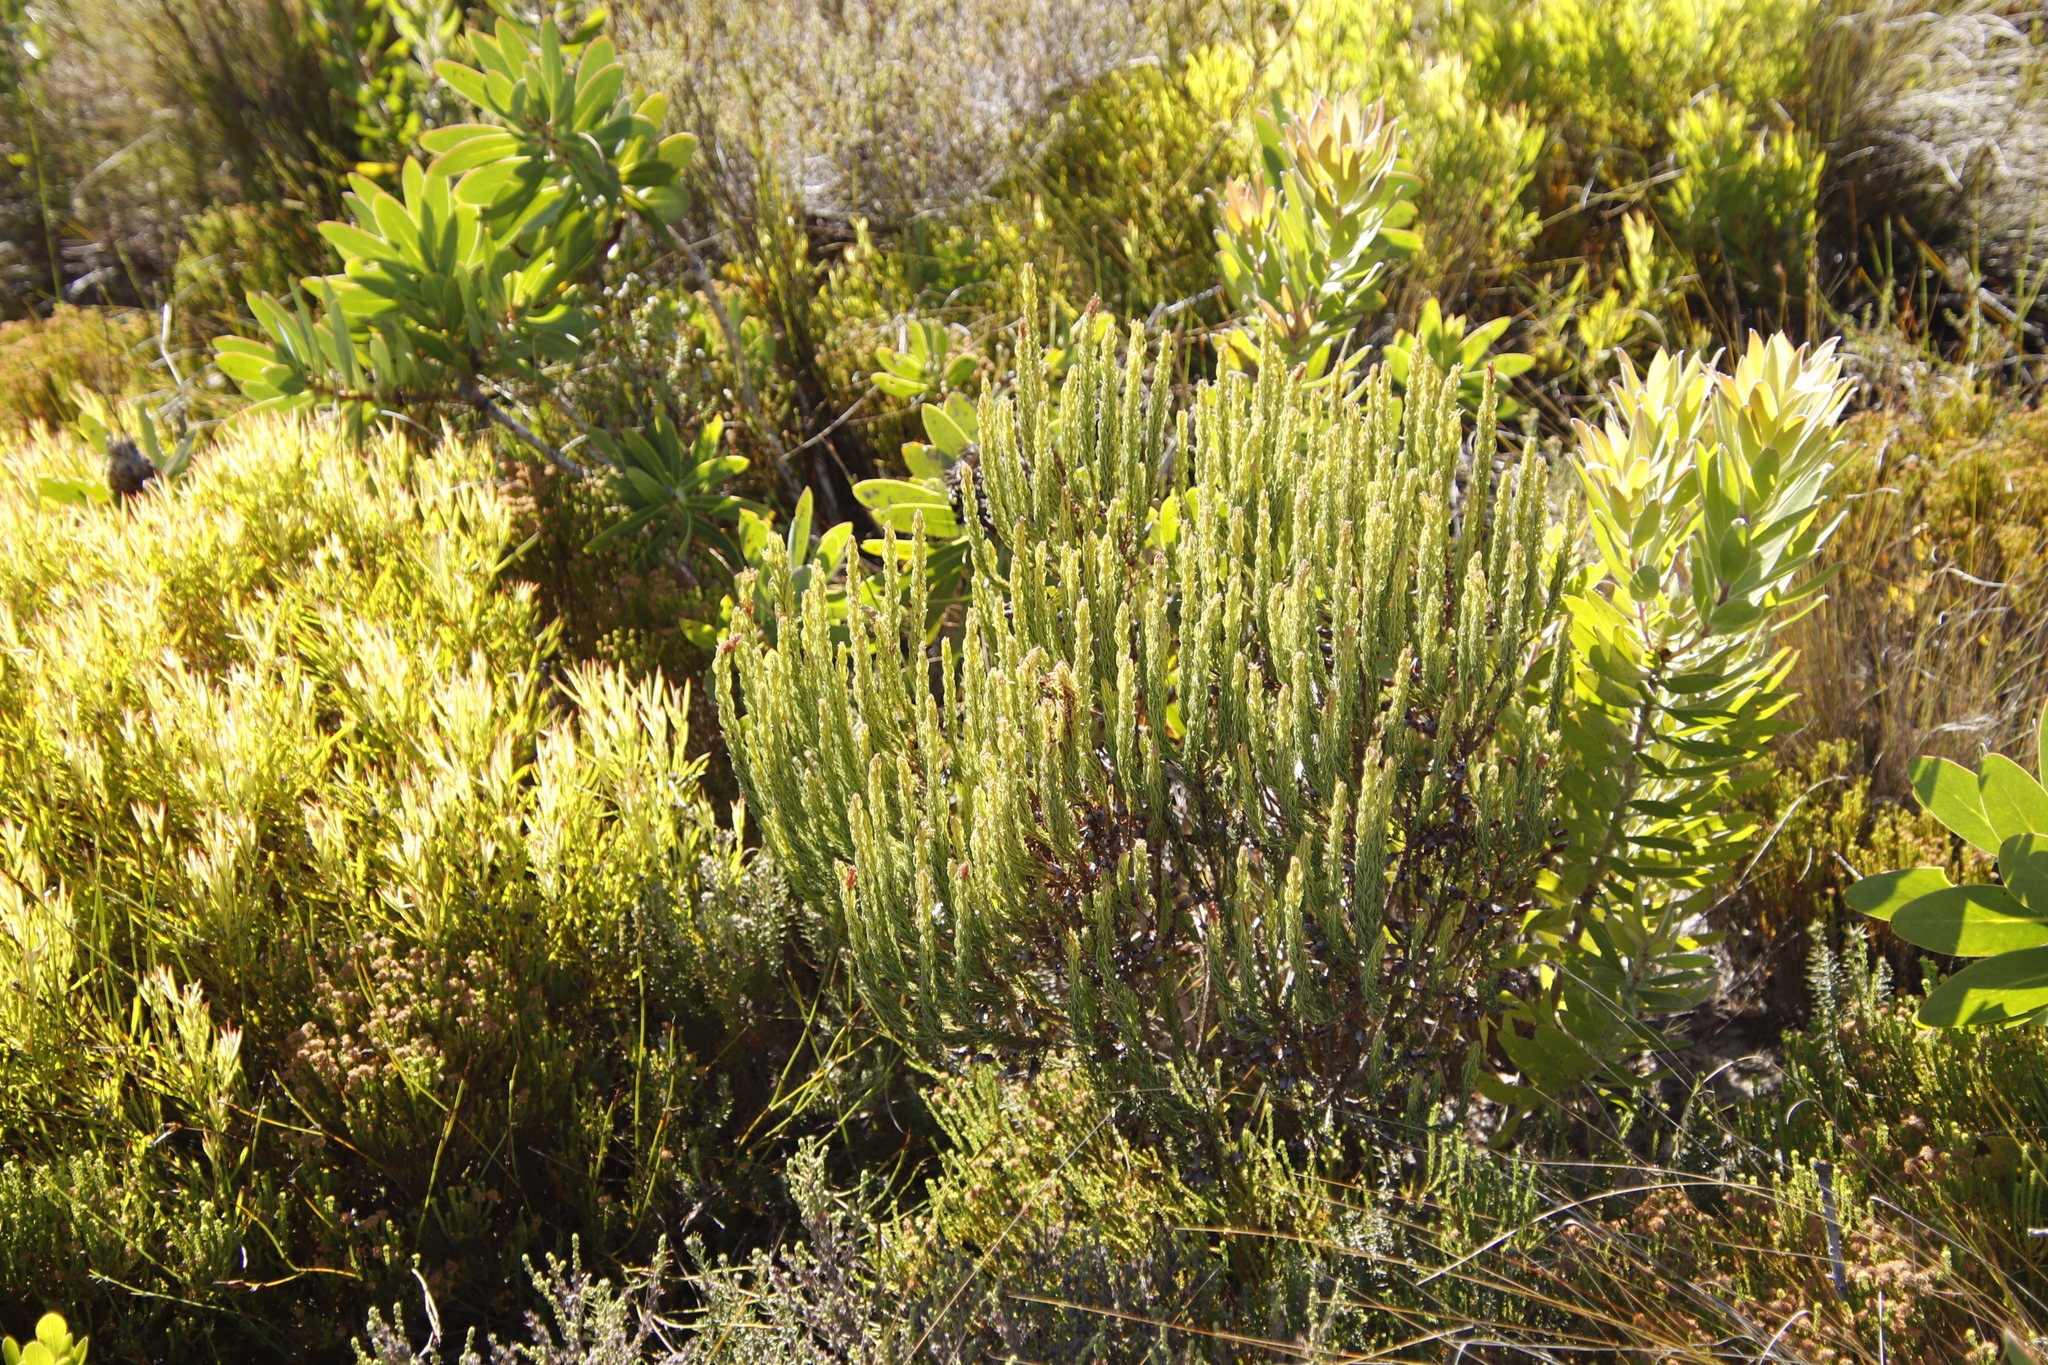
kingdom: Plantae
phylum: Tracheophyta
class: Magnoliopsida
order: Ericales
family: Ericaceae
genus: Erica
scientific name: Erica plukenetii
